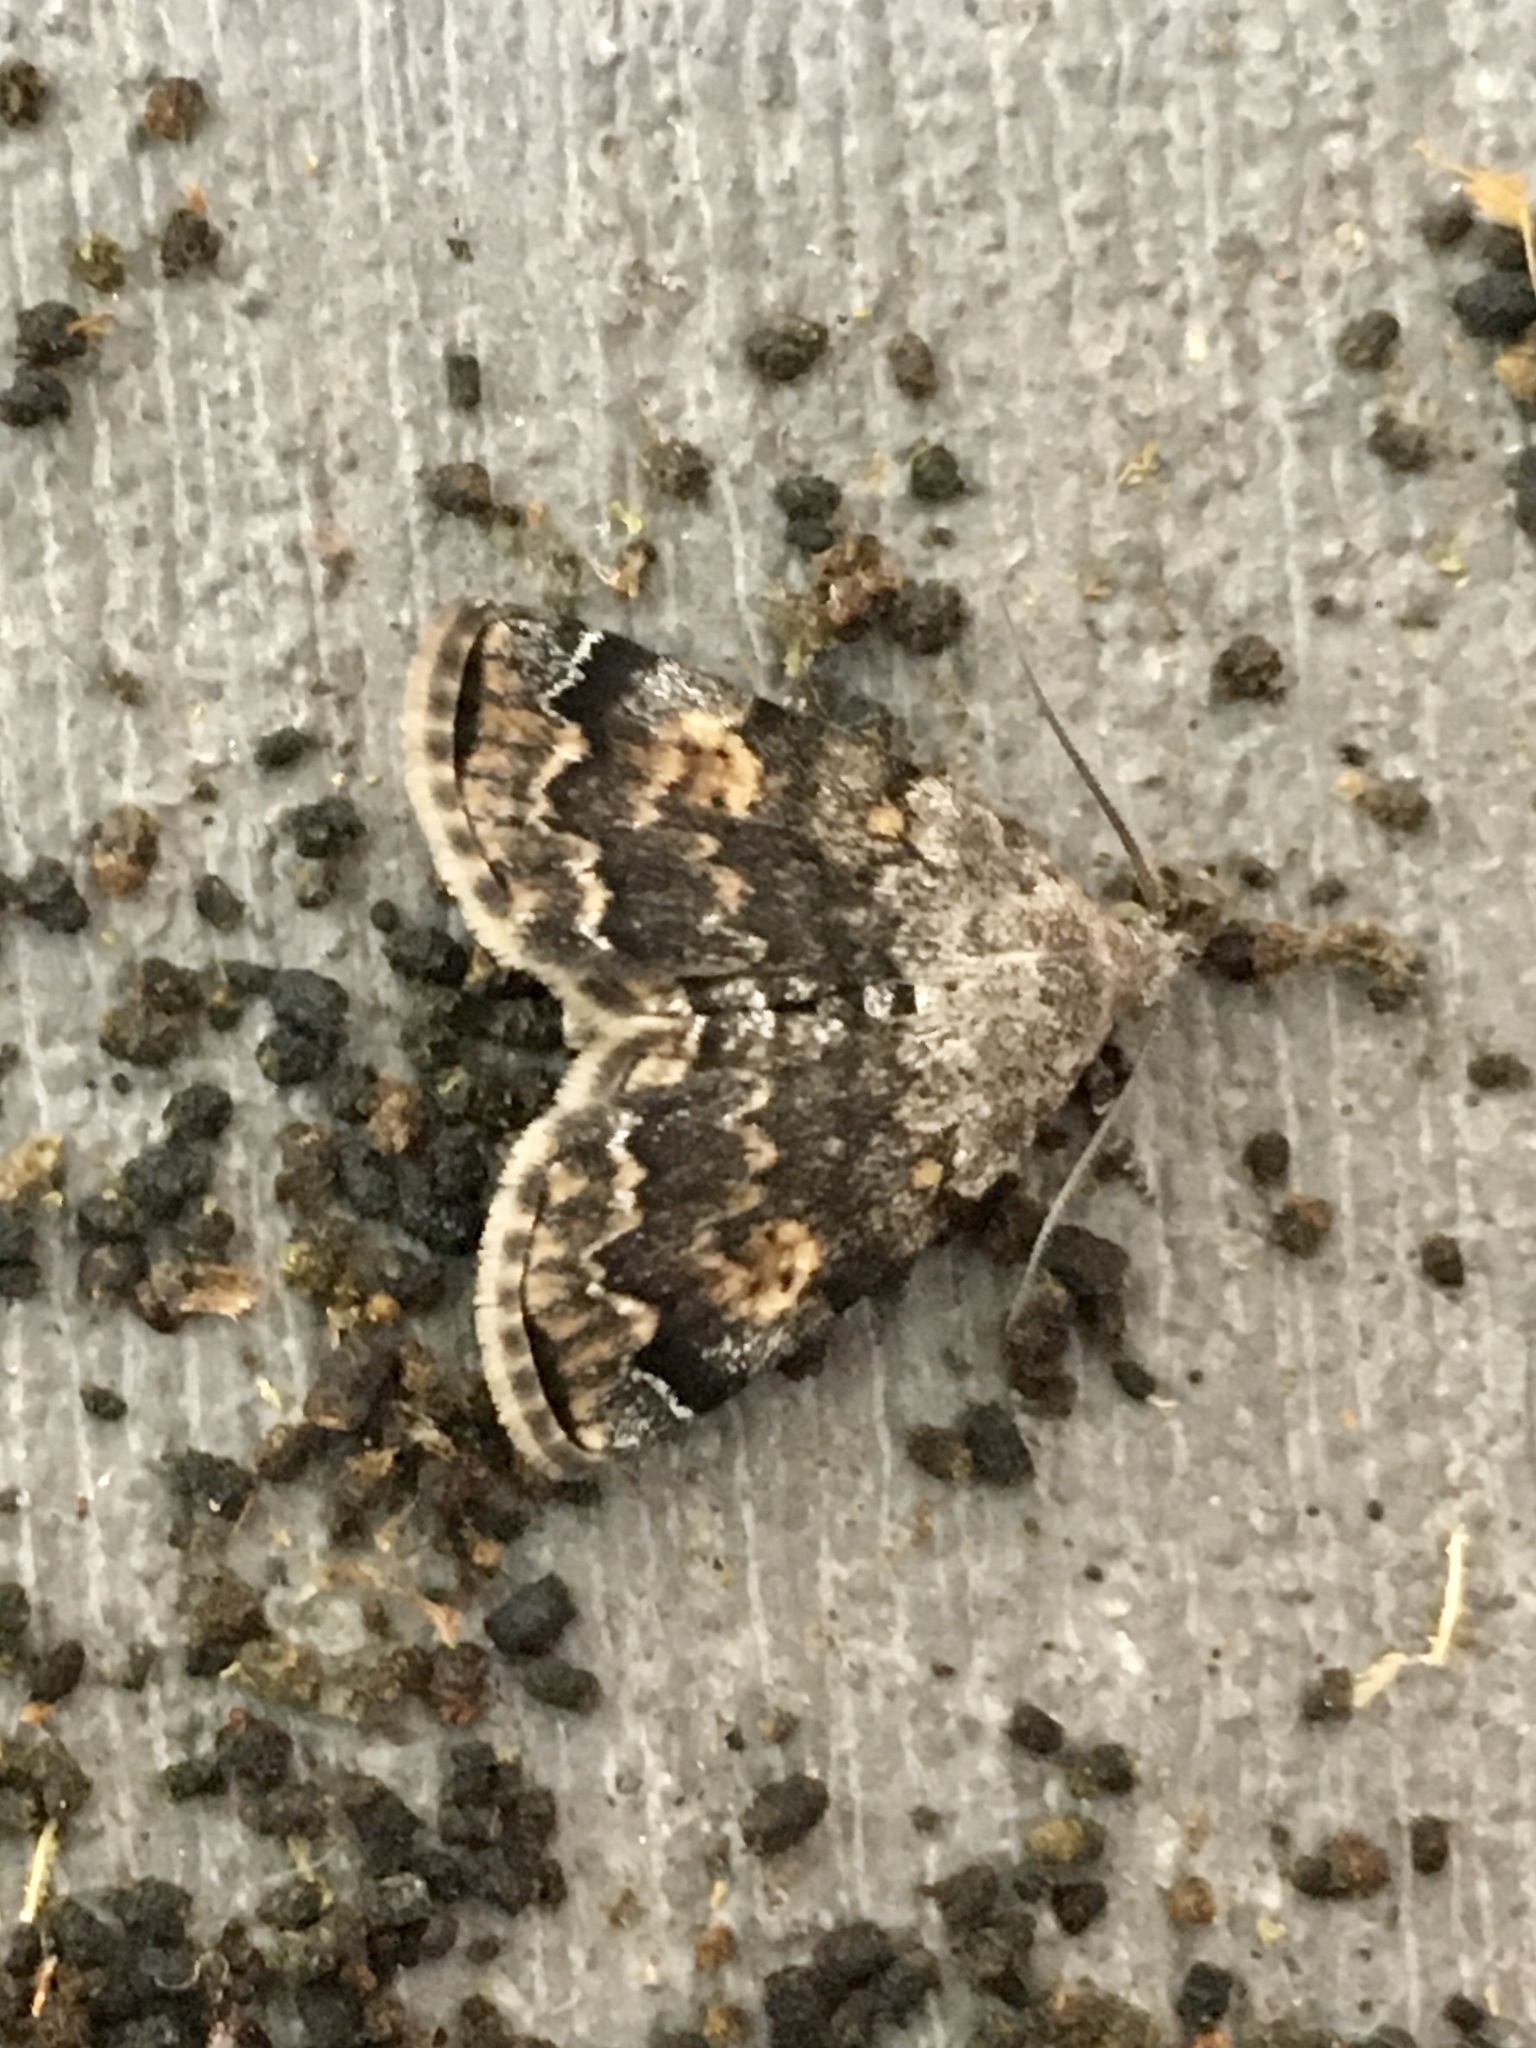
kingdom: Animalia
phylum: Arthropoda
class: Insecta
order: Lepidoptera
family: Erebidae
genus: Idia
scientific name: Idia americalis
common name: American idia moth
